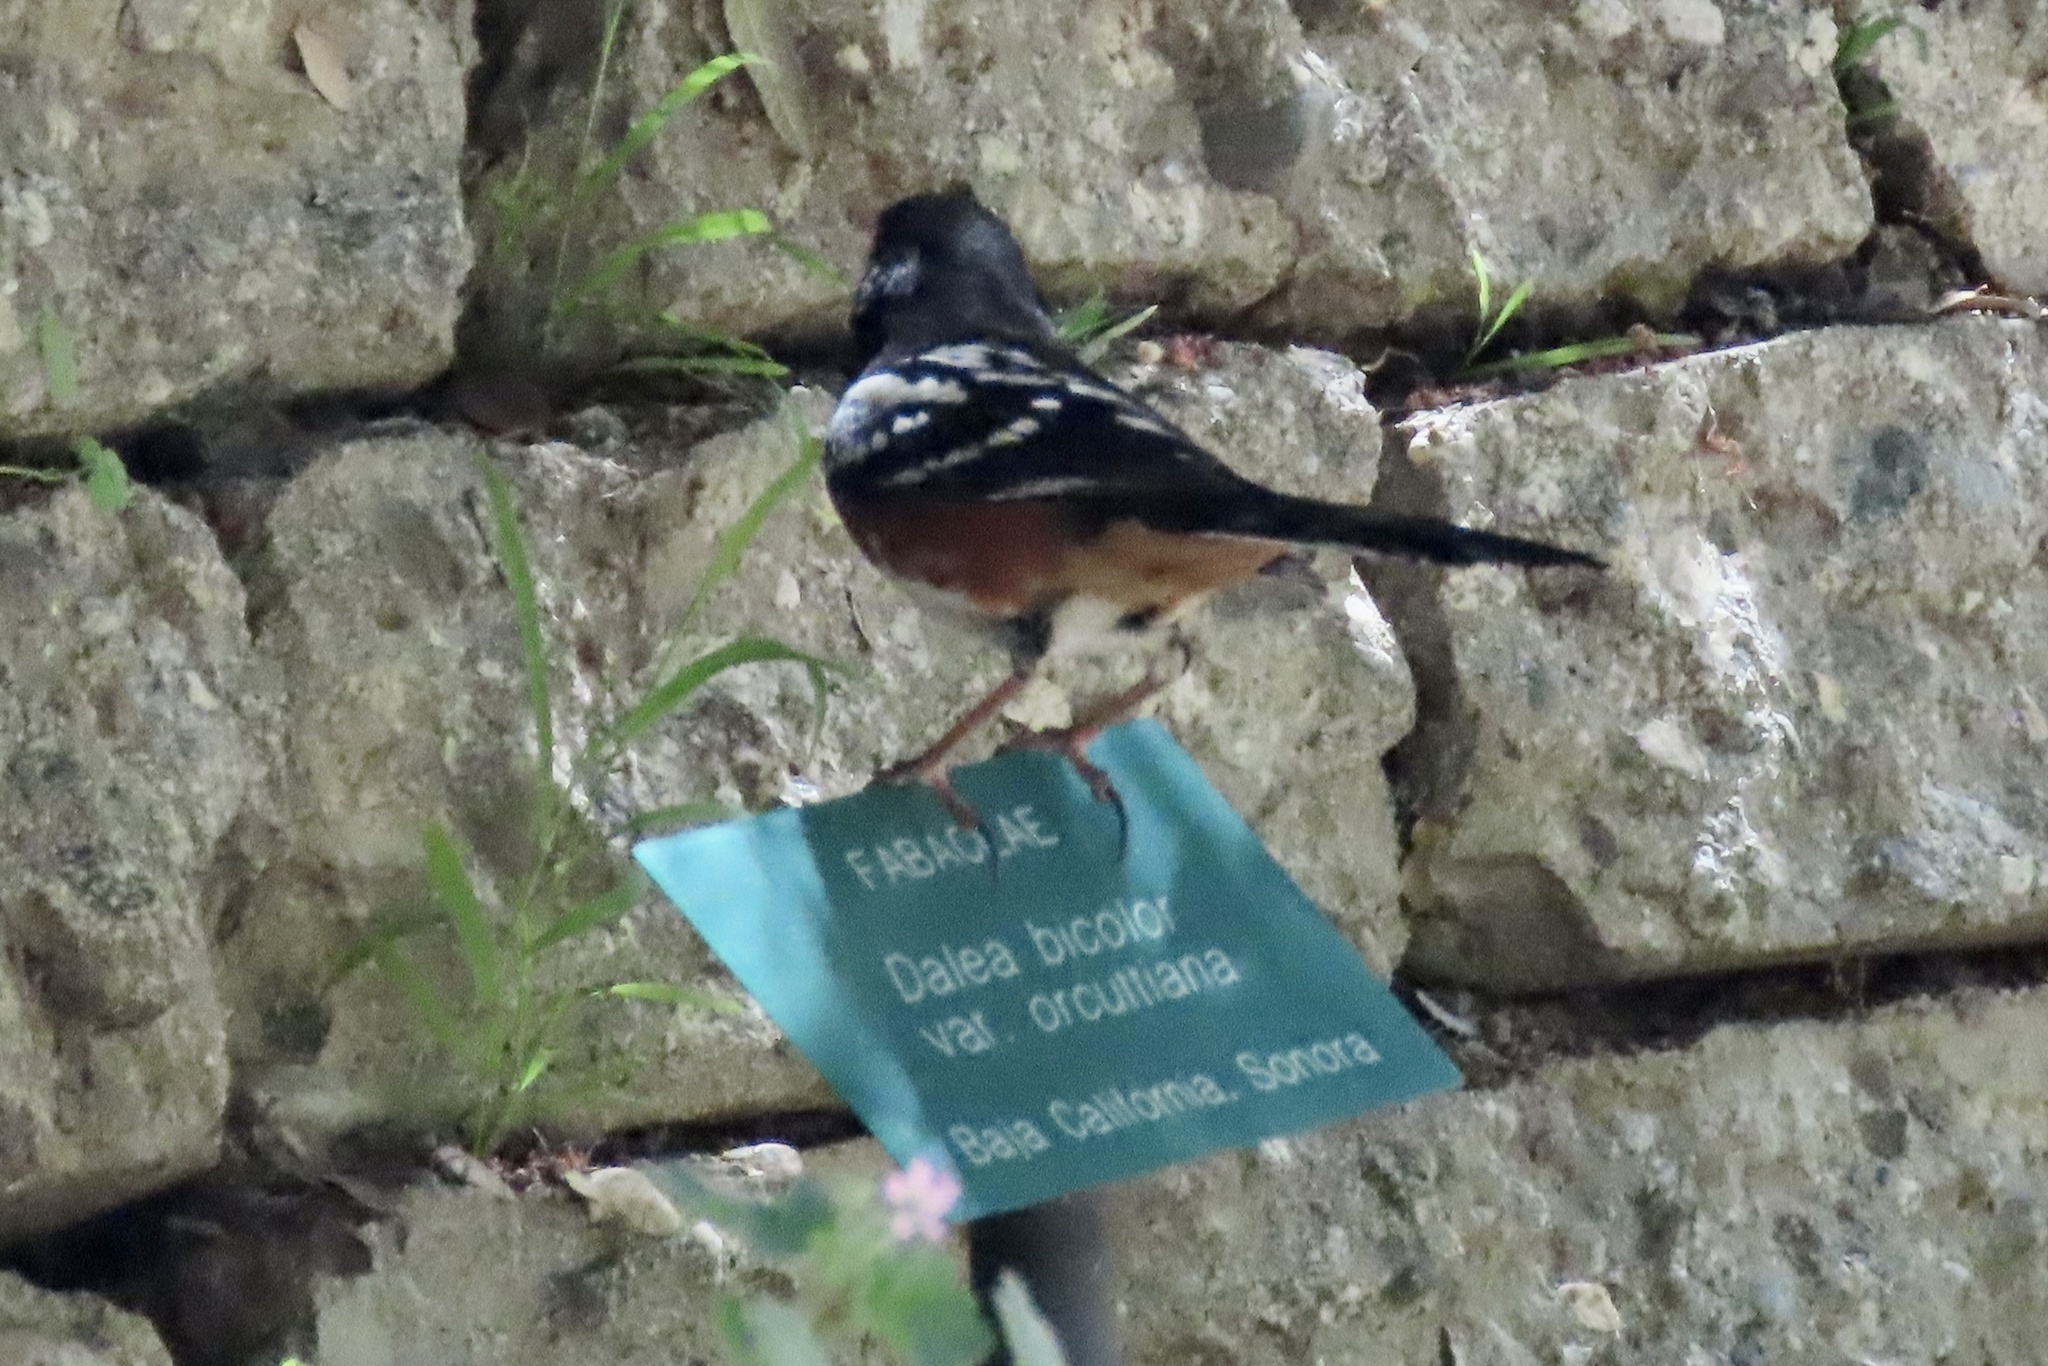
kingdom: Animalia
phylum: Chordata
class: Aves
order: Passeriformes
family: Passerellidae
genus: Pipilo
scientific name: Pipilo maculatus
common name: Spotted towhee
